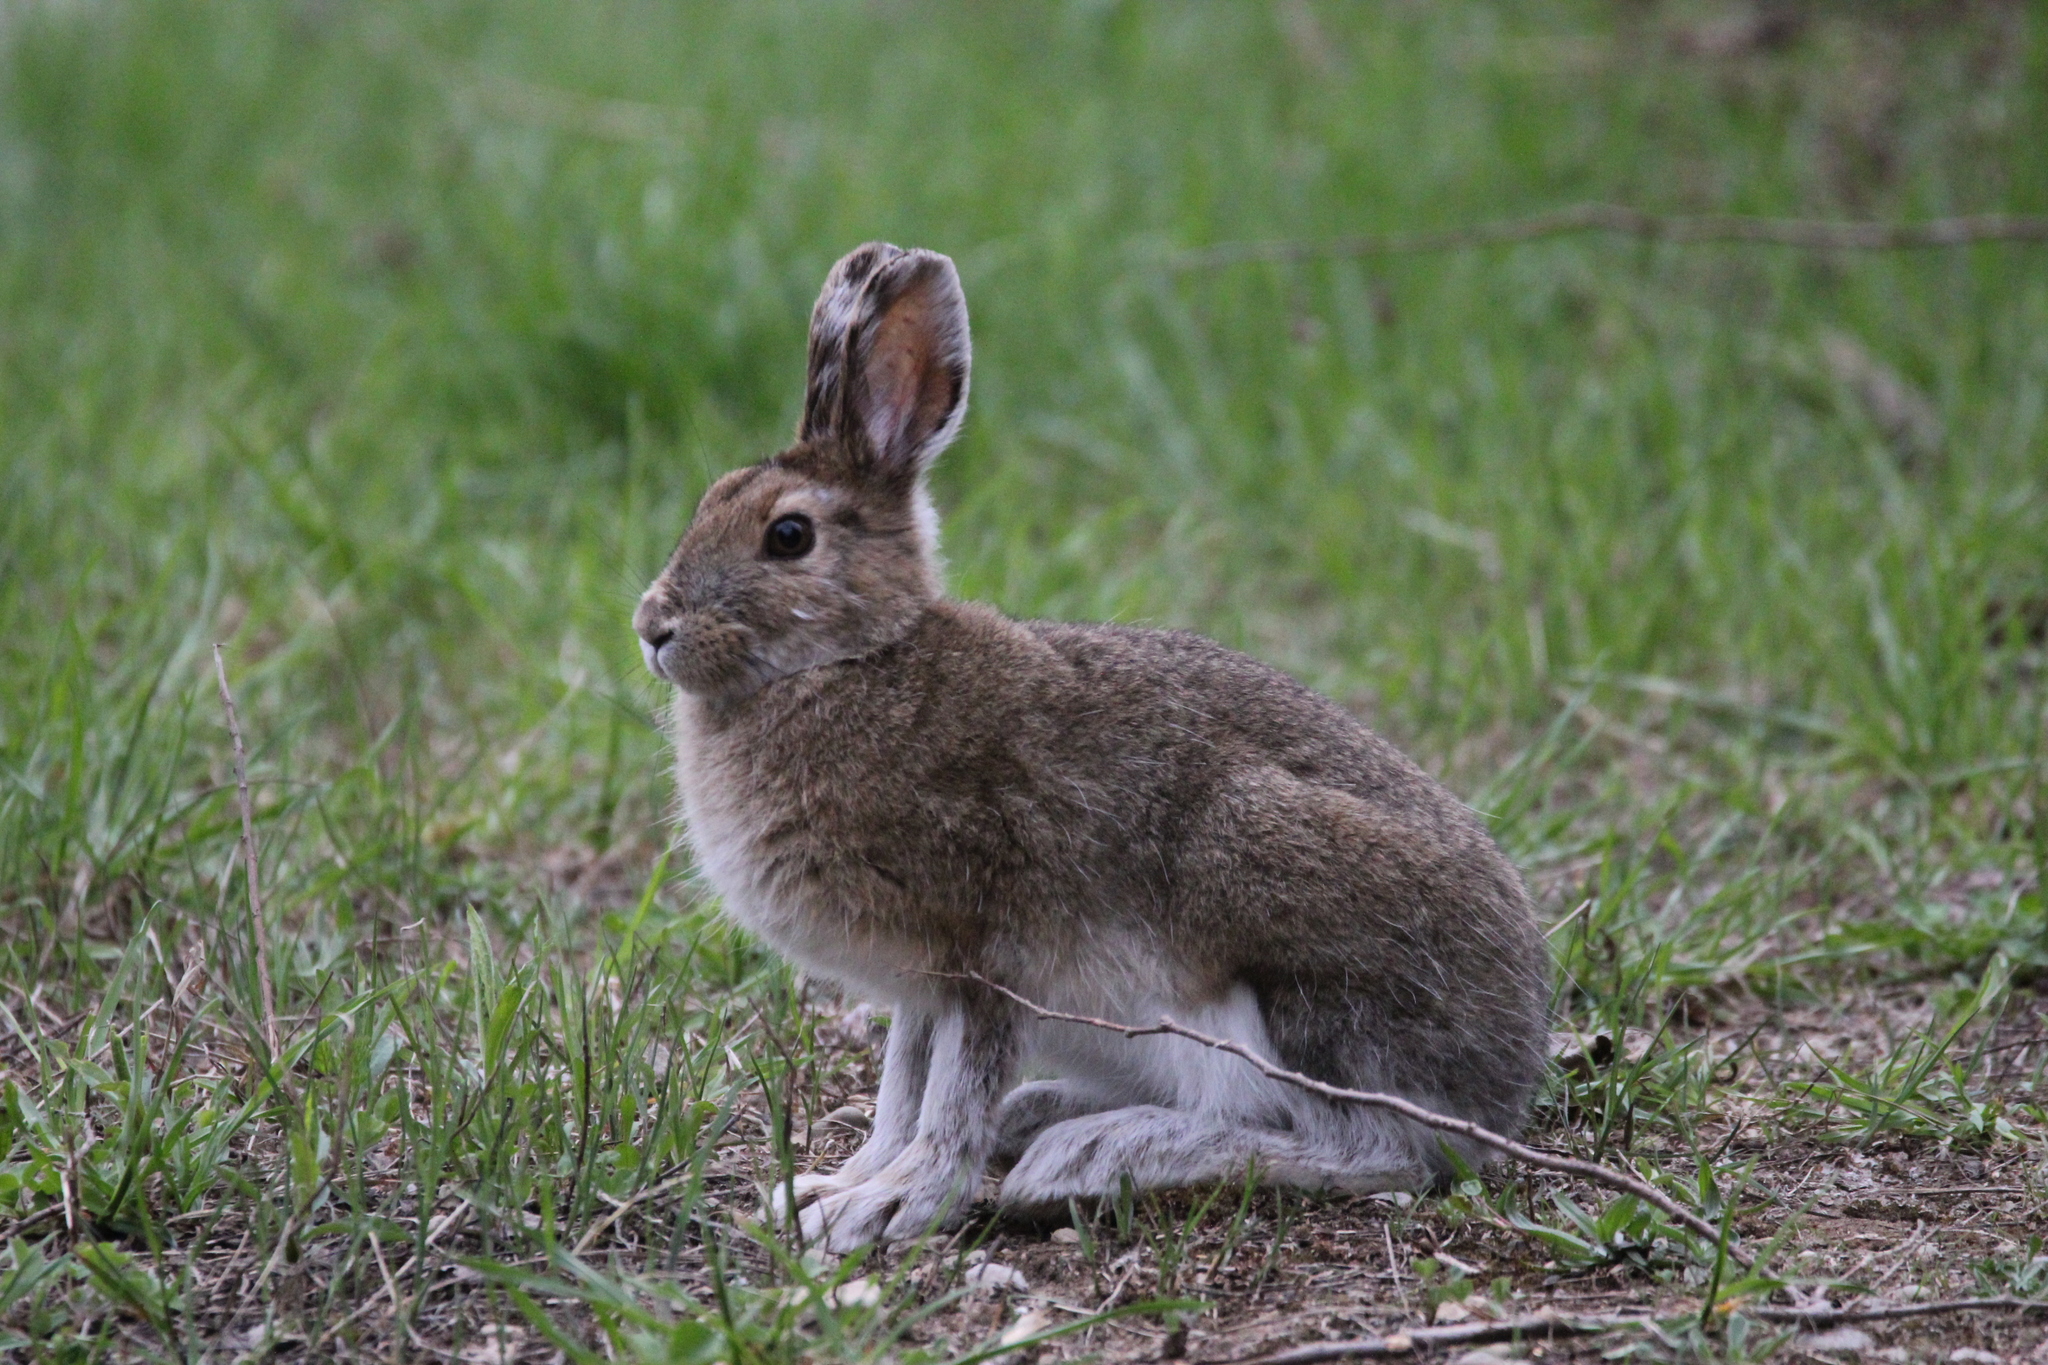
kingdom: Animalia
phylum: Chordata
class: Mammalia
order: Lagomorpha
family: Leporidae
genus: Lepus
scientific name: Lepus americanus
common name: Snowshoe hare
